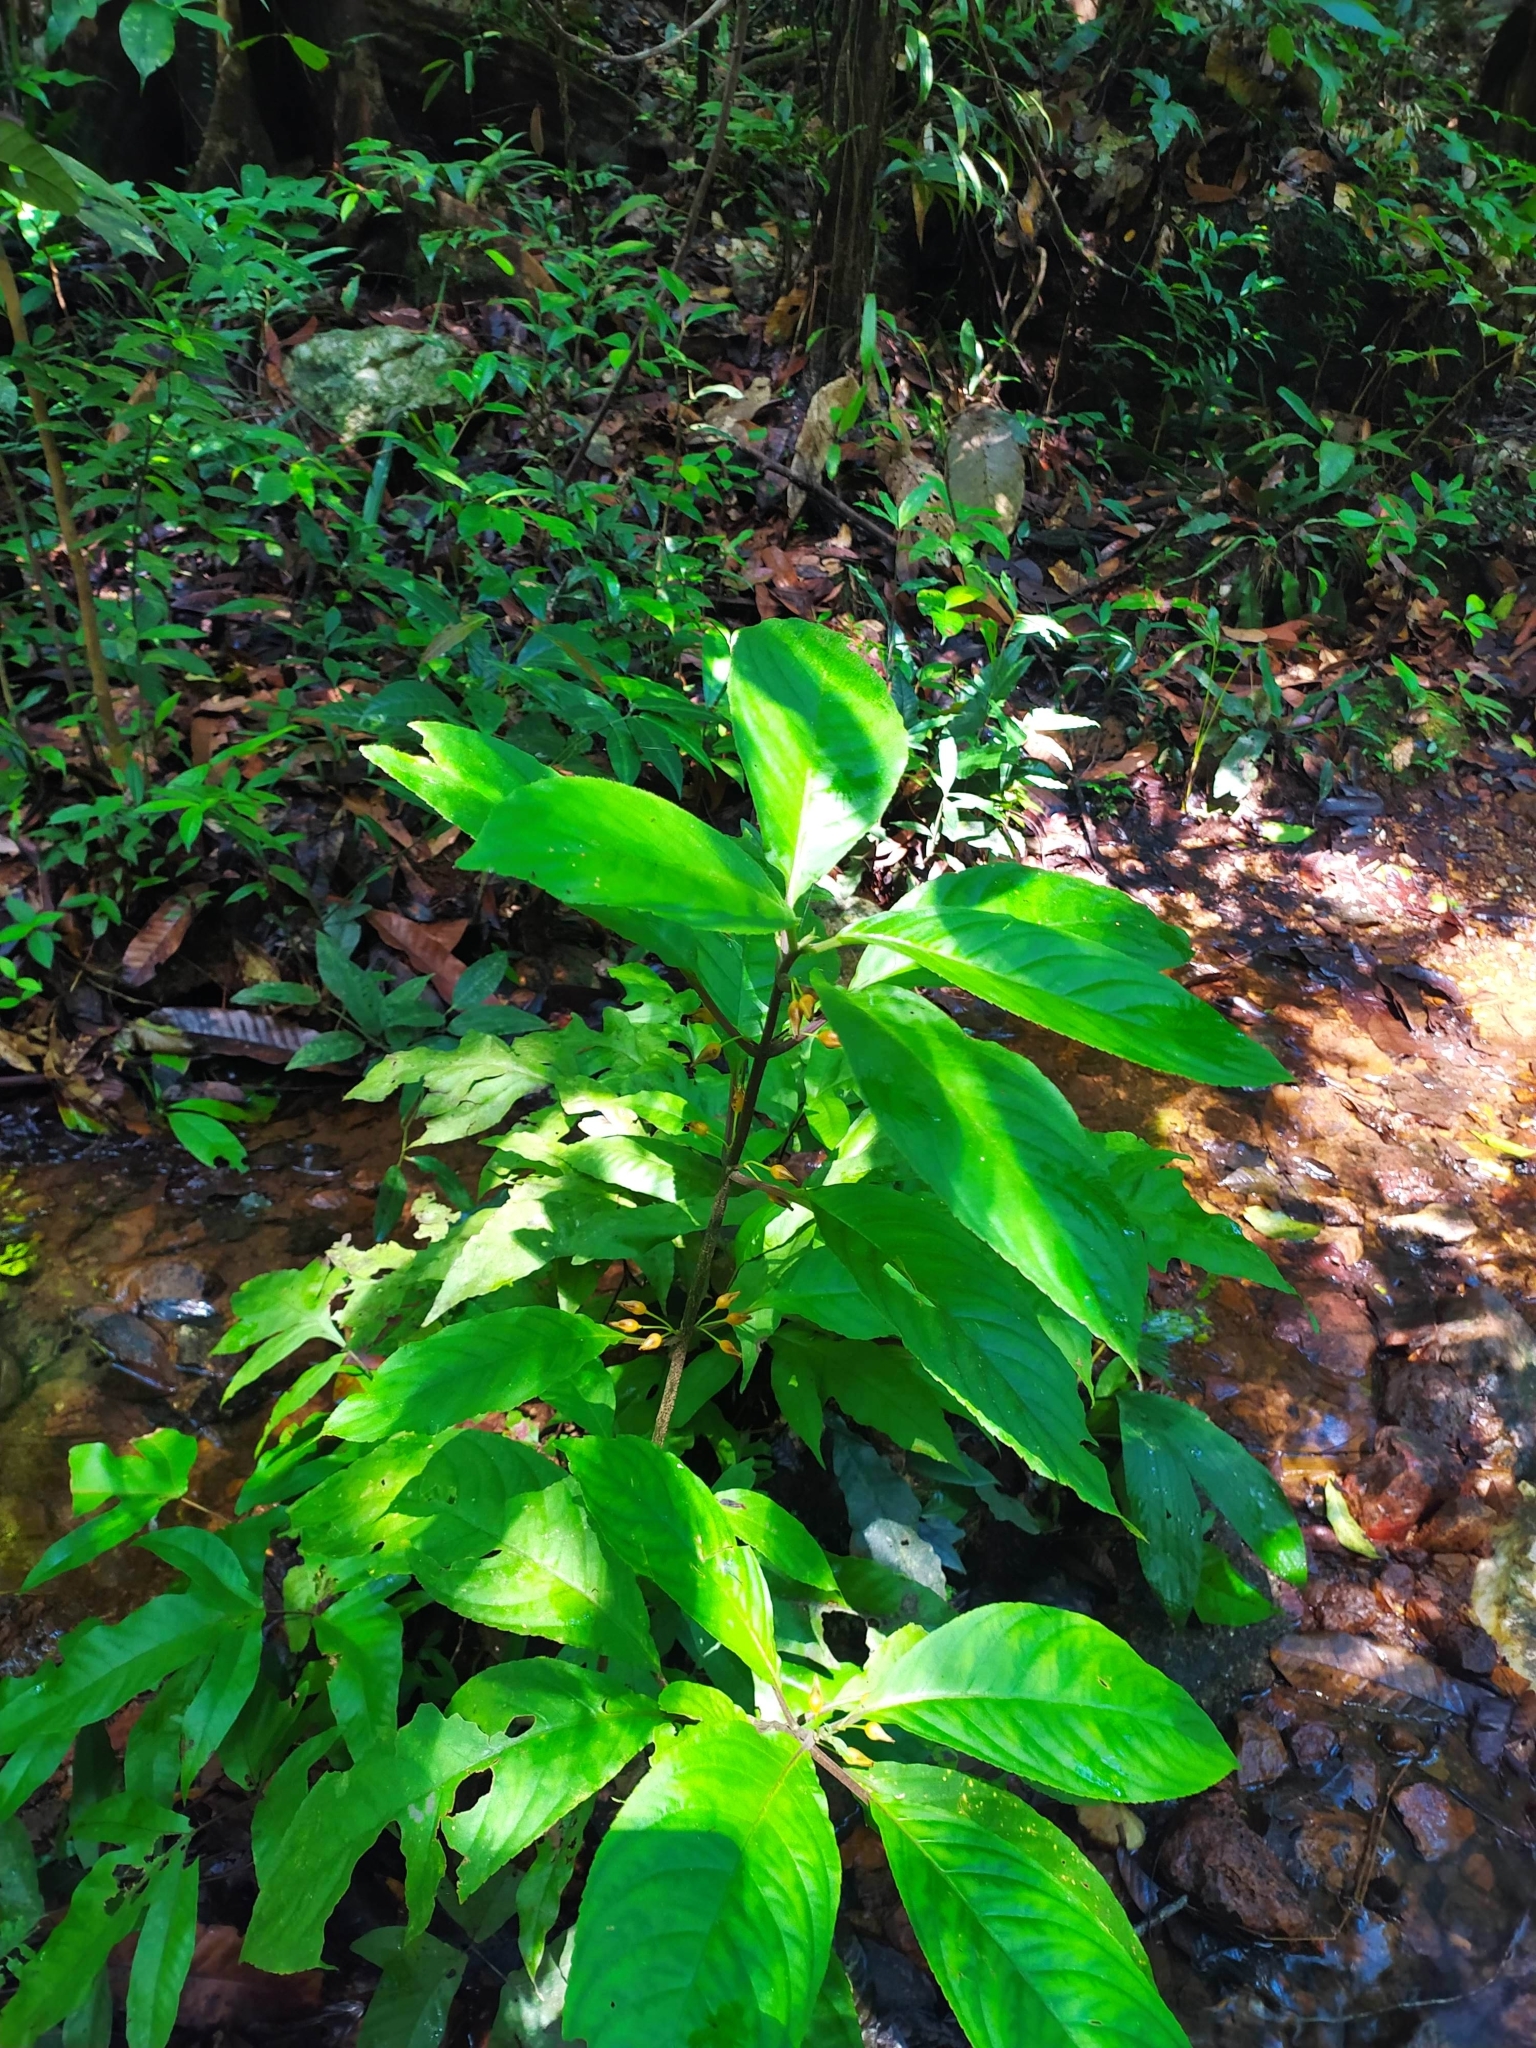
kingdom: Plantae
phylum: Tracheophyta
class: Magnoliopsida
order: Lamiales
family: Gesneriaceae
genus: Besleria
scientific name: Besleria patrisii
